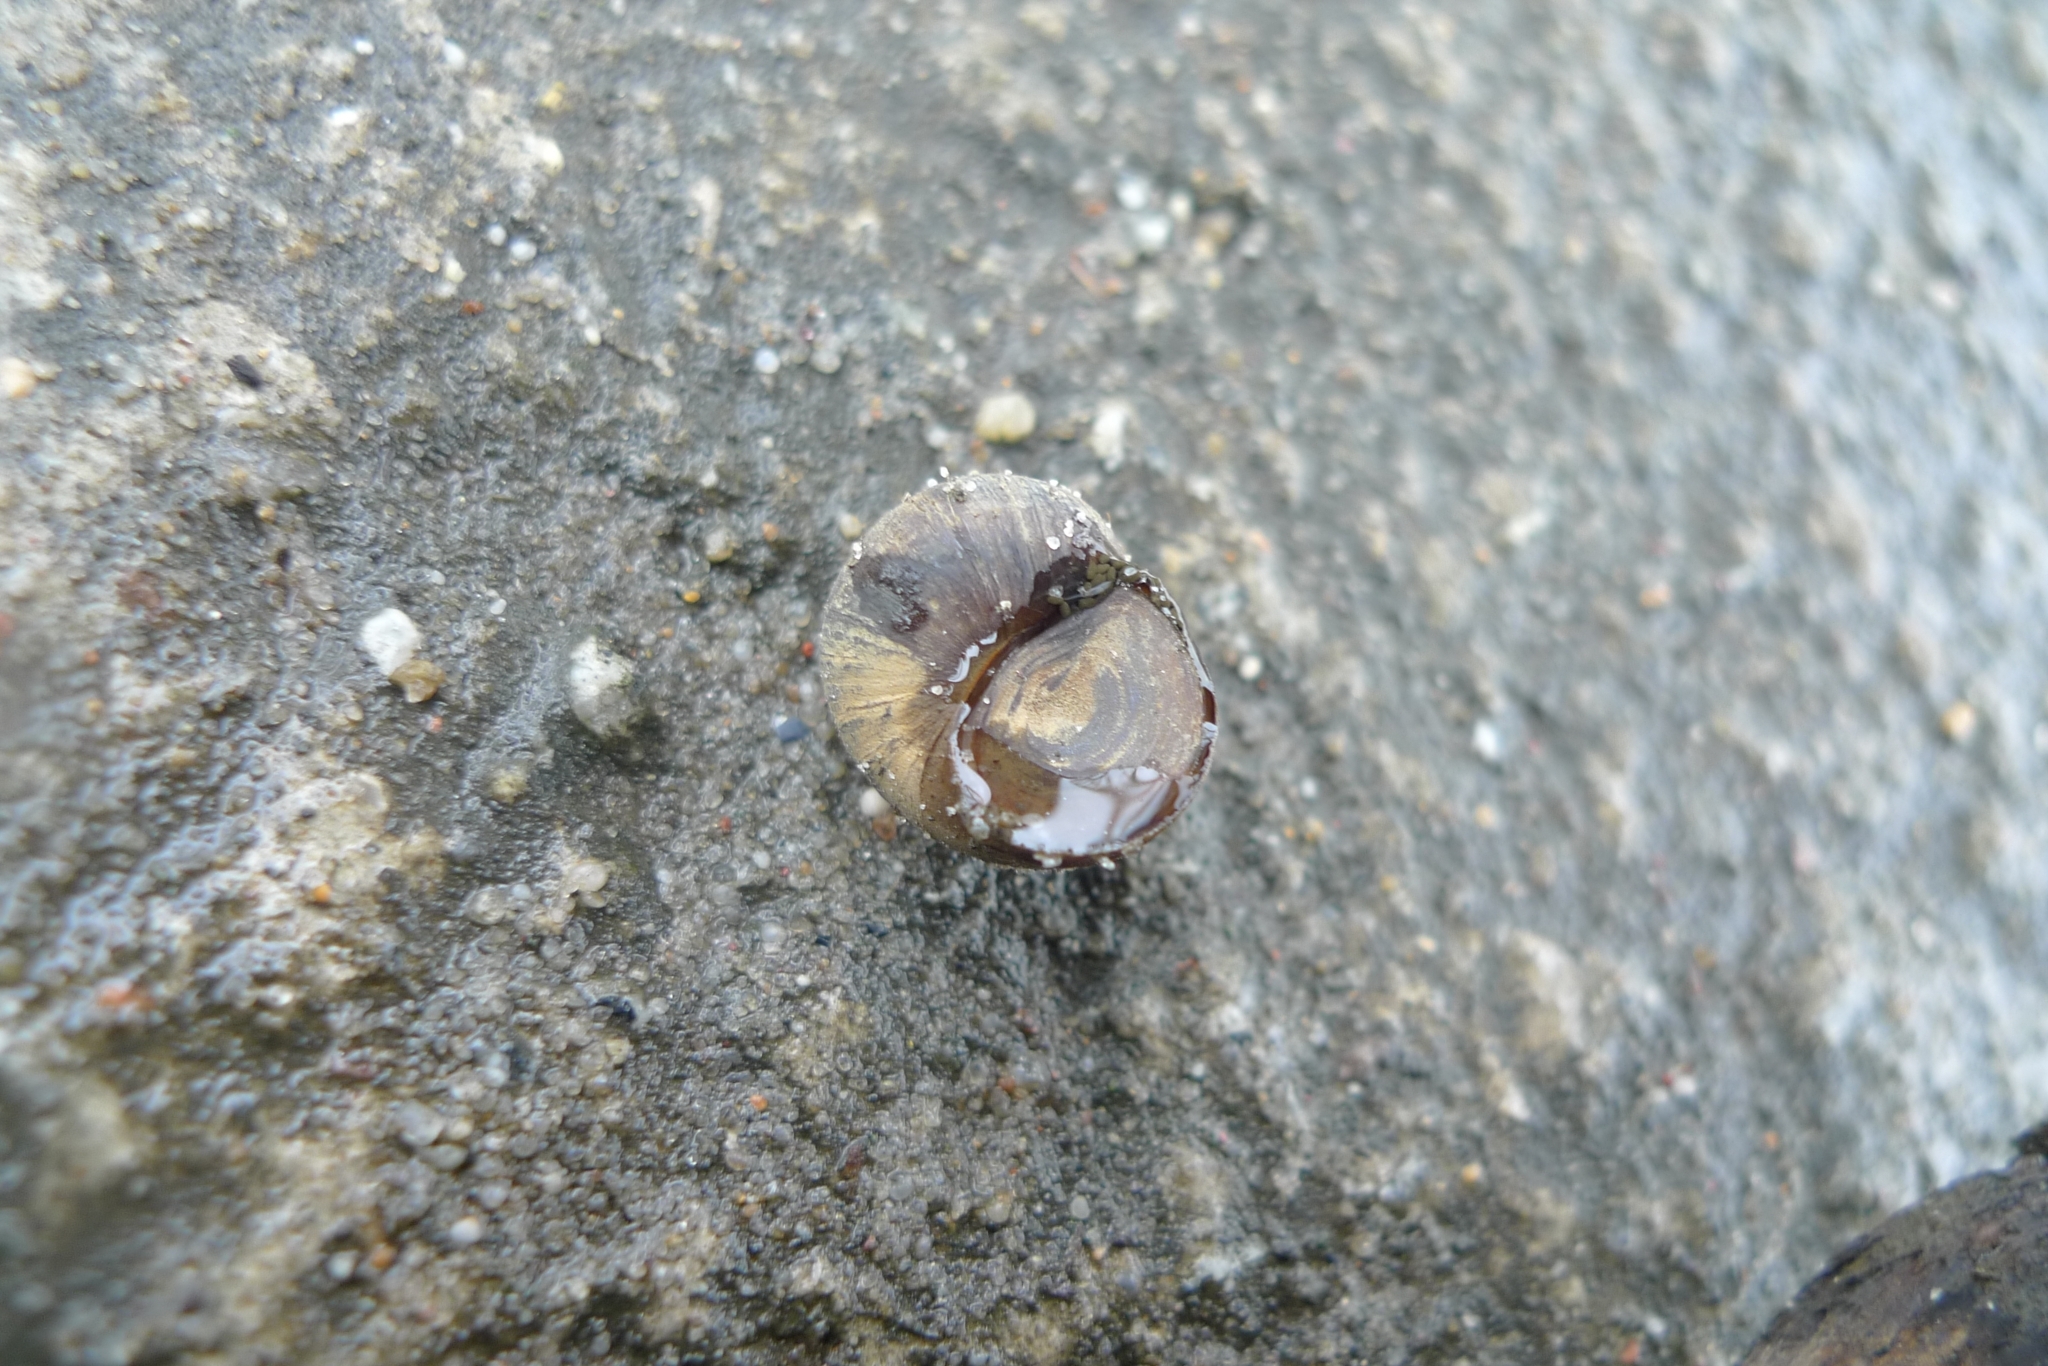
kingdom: Animalia
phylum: Mollusca
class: Gastropoda
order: Architaenioglossa
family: Viviparidae
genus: Viviparus
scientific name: Viviparus viviparus
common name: River snail
